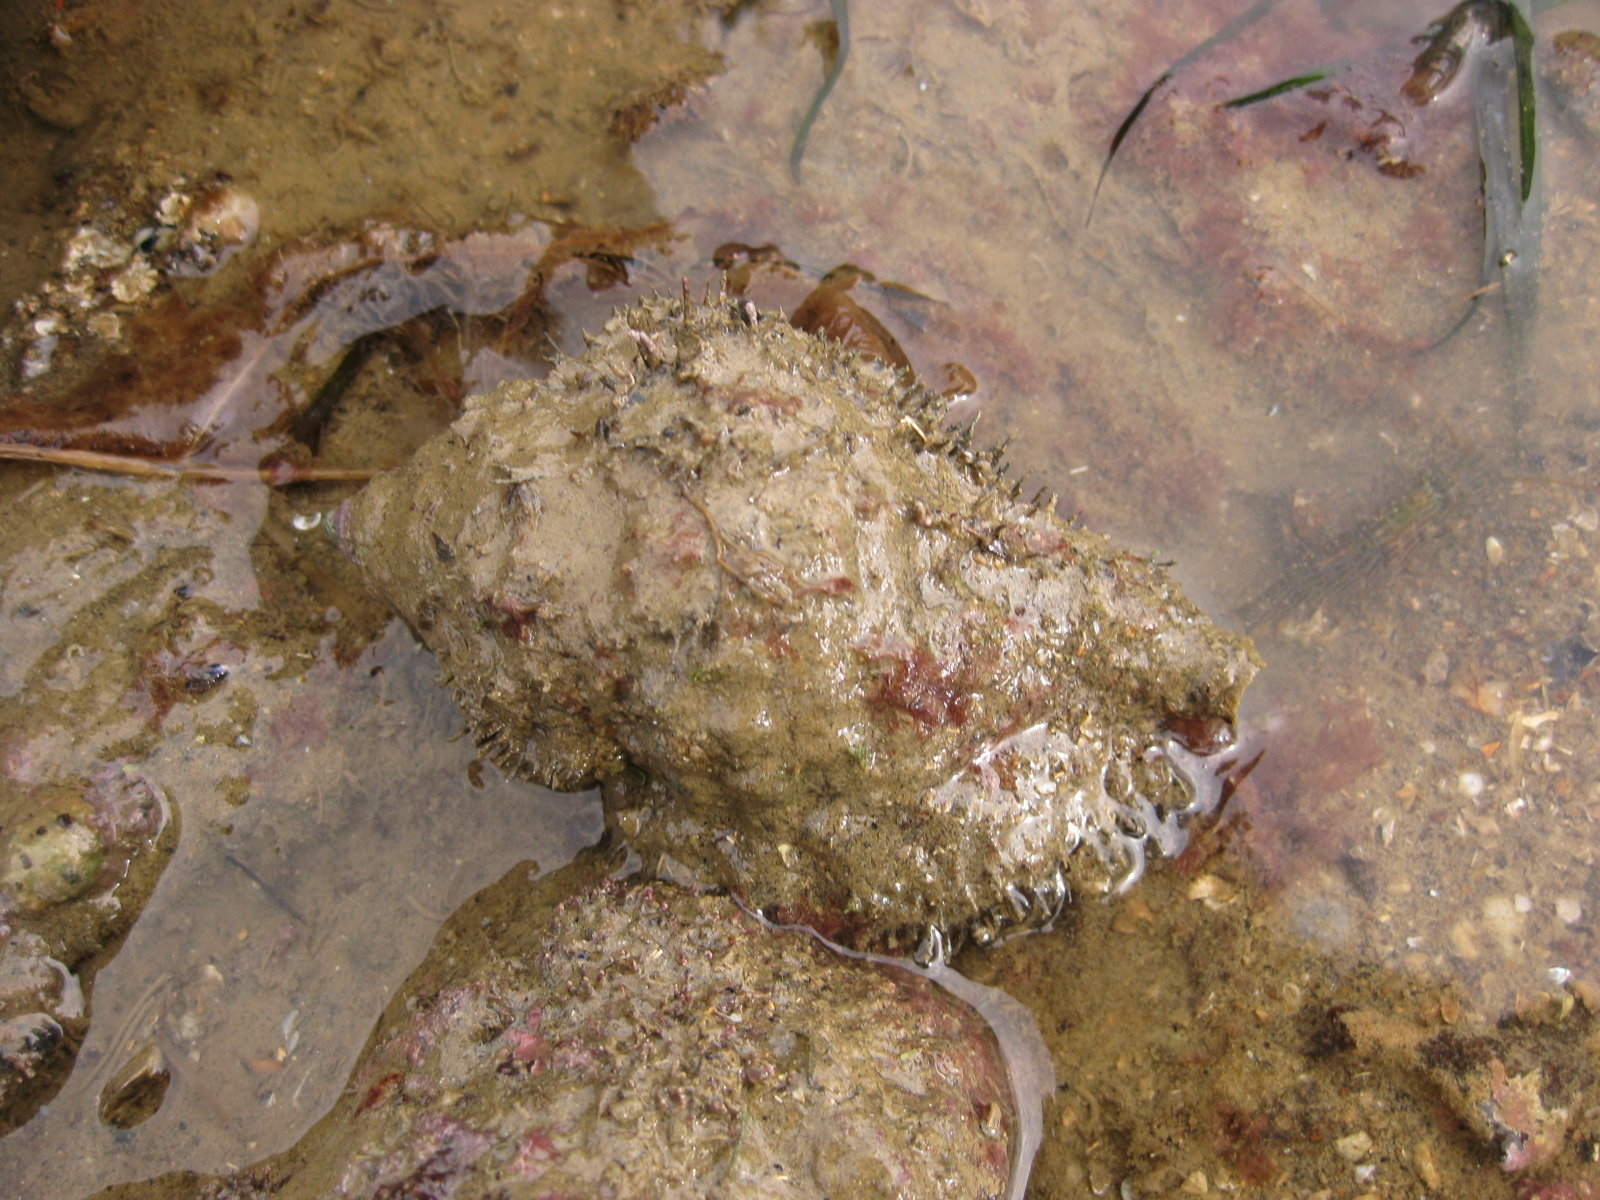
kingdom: Animalia
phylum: Mollusca
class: Gastropoda
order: Littorinimorpha
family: Cymatiidae
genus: Monoplex
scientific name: Monoplex parthenopeus
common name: Giant triton
